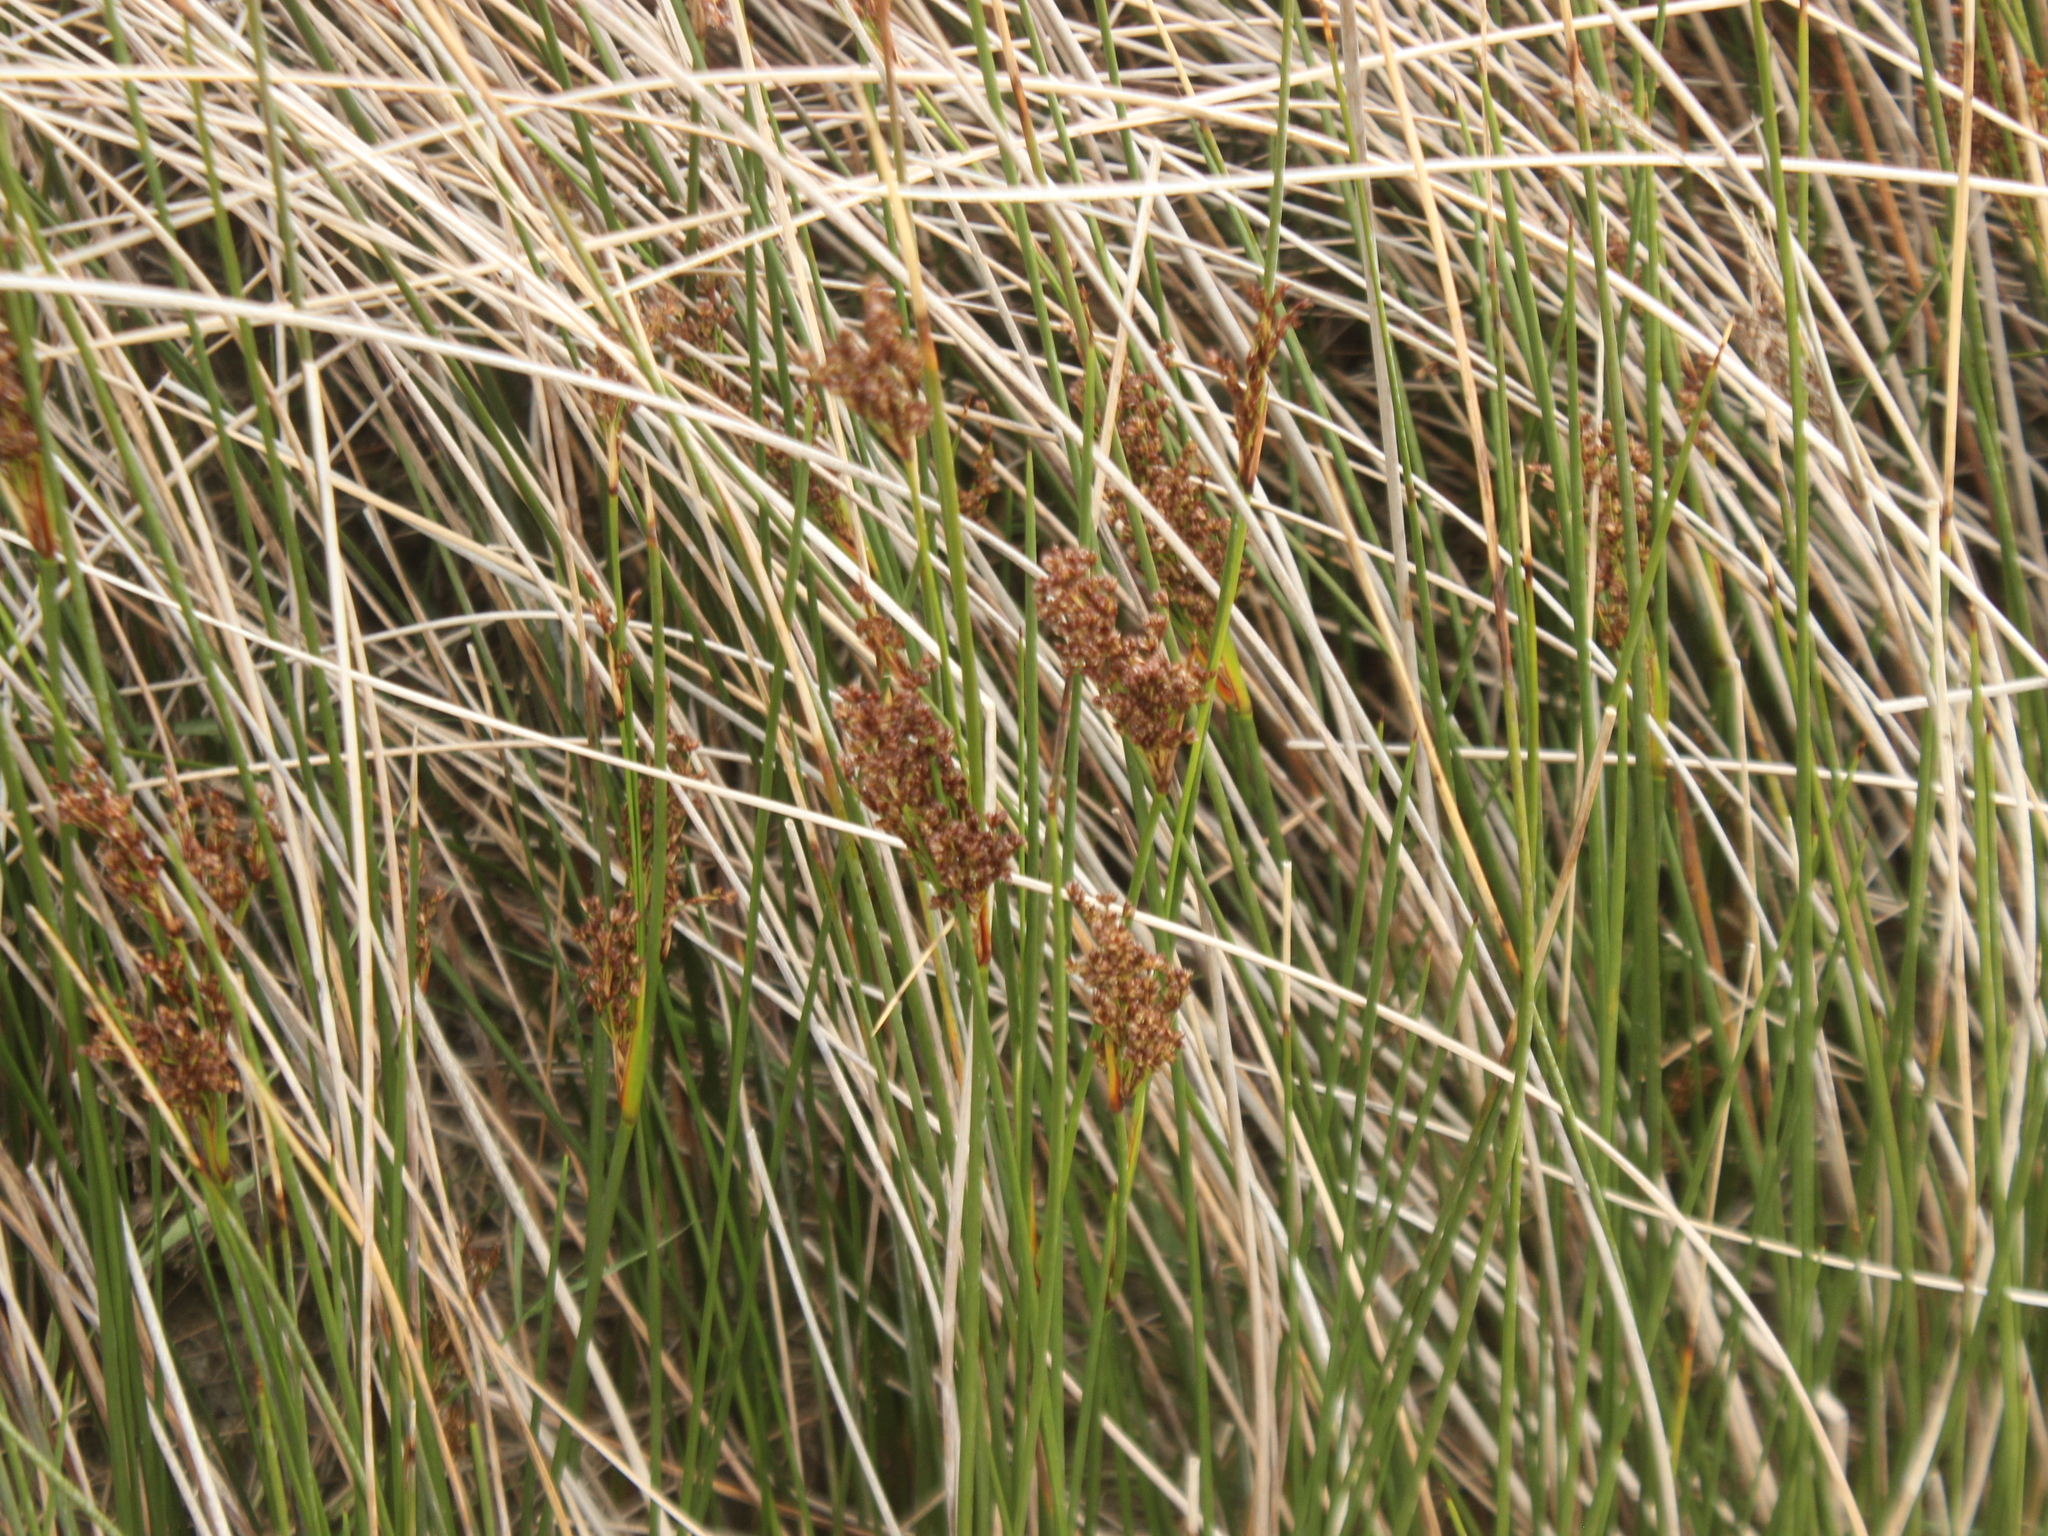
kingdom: Plantae
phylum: Tracheophyta
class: Liliopsida
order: Poales
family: Juncaceae
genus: Juncus
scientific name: Juncus kraussii
